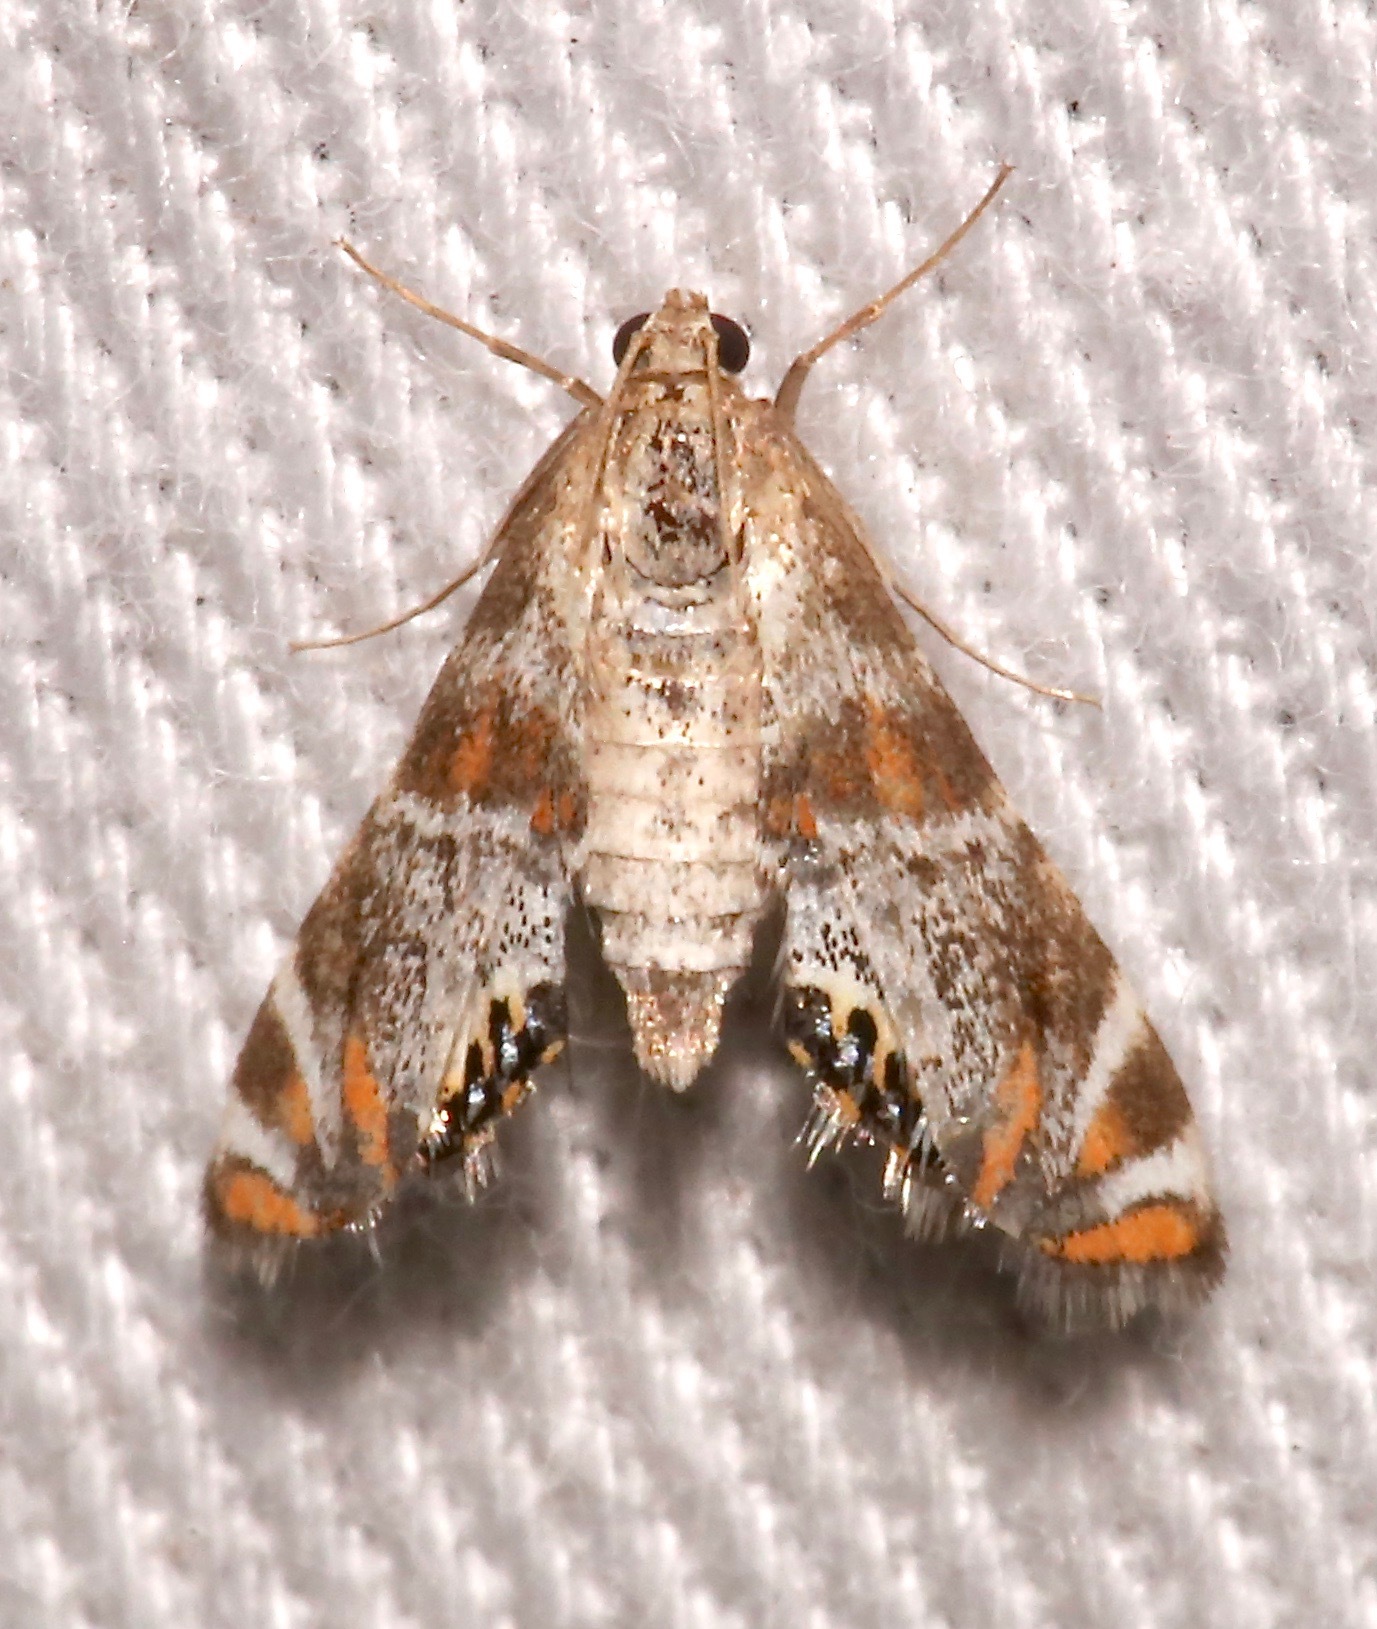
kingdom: Animalia
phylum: Arthropoda
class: Insecta
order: Lepidoptera
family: Crambidae
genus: Petrophila
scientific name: Petrophila jaliscalis
